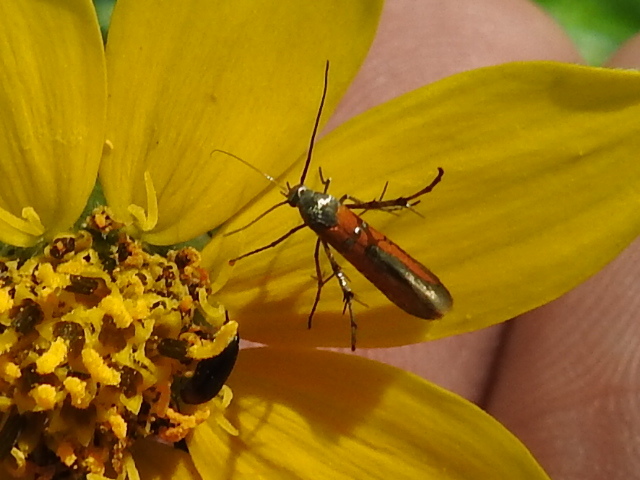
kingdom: Animalia
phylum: Arthropoda
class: Insecta
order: Lepidoptera
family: Heliodinidae
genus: Heliodines
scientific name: Heliodines Aetole tripunctella
